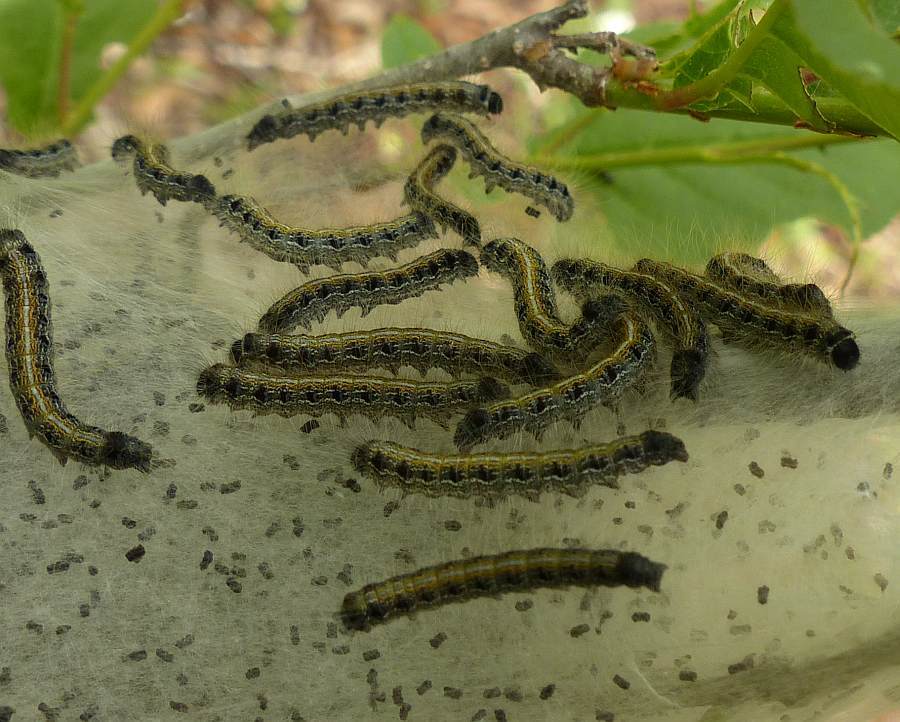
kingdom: Animalia
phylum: Arthropoda
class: Insecta
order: Lepidoptera
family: Lasiocampidae
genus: Malacosoma
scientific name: Malacosoma americana
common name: Eastern tent caterpillar moth
